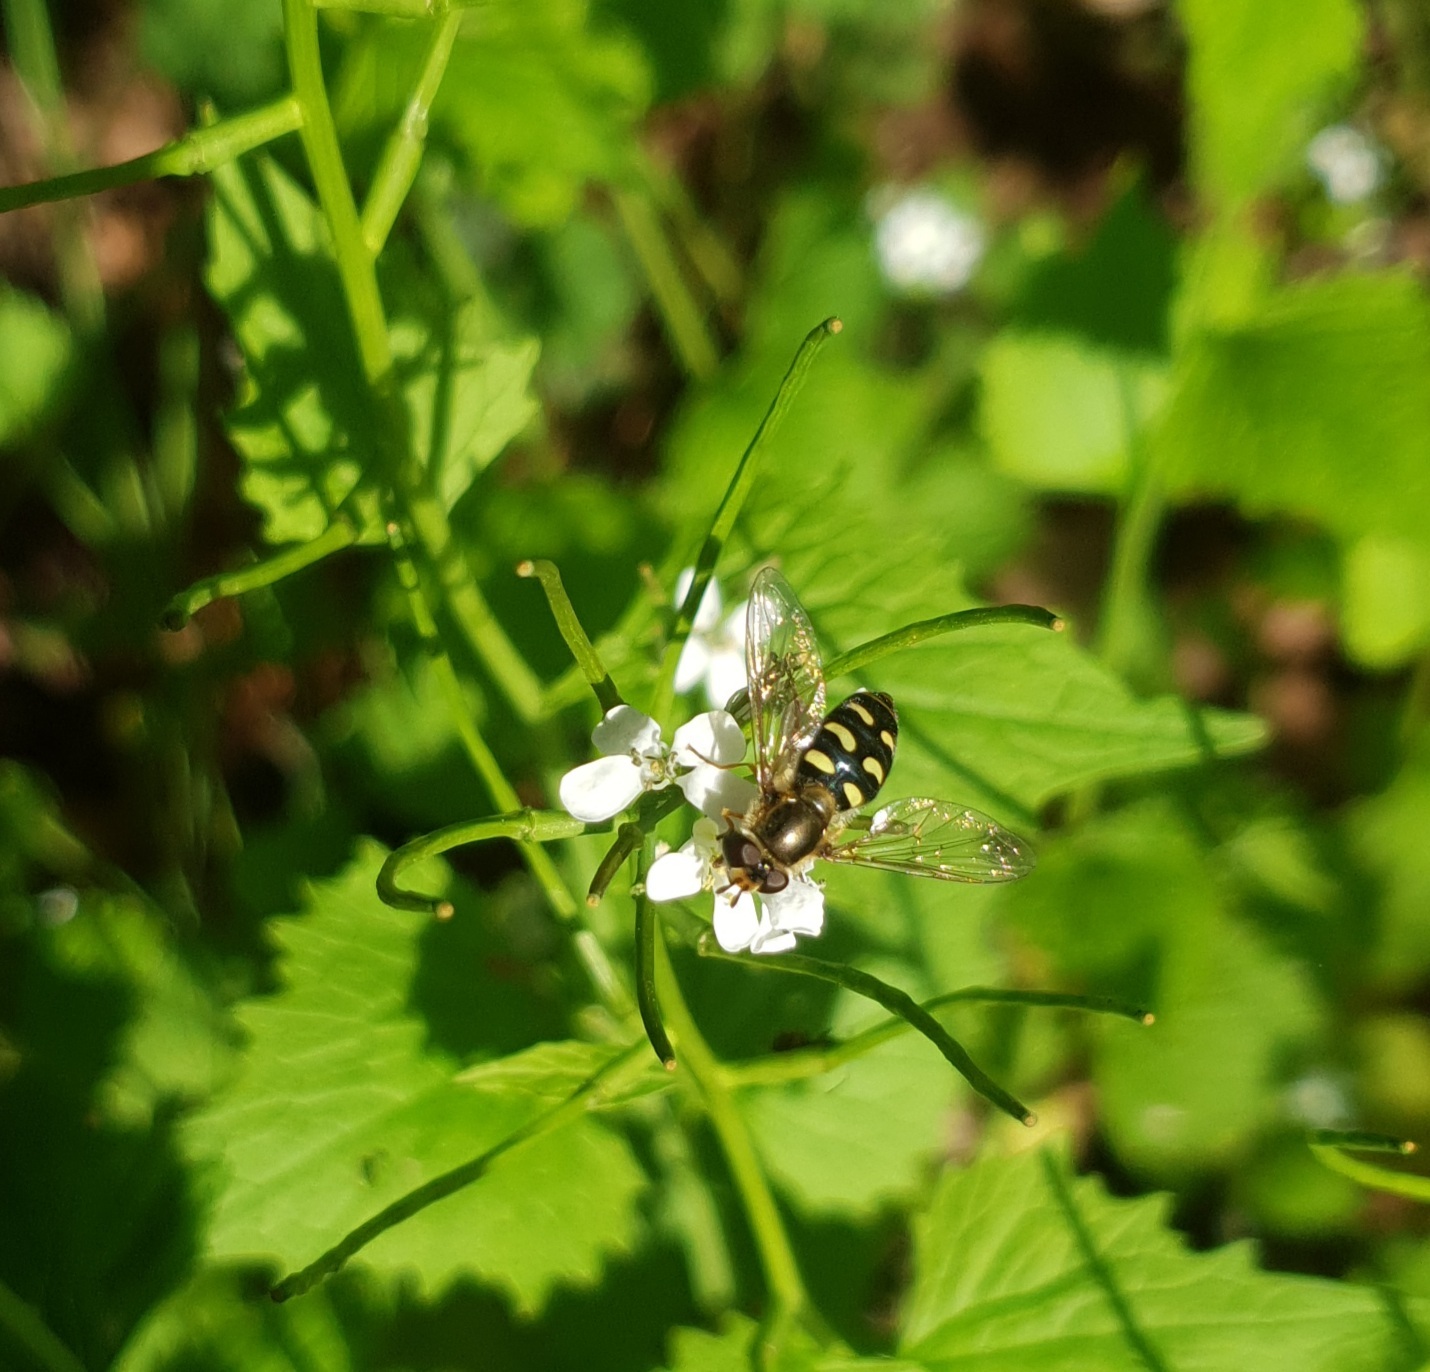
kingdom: Animalia
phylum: Arthropoda
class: Insecta
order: Diptera
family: Syrphidae
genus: Eupeodes
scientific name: Eupeodes luniger
